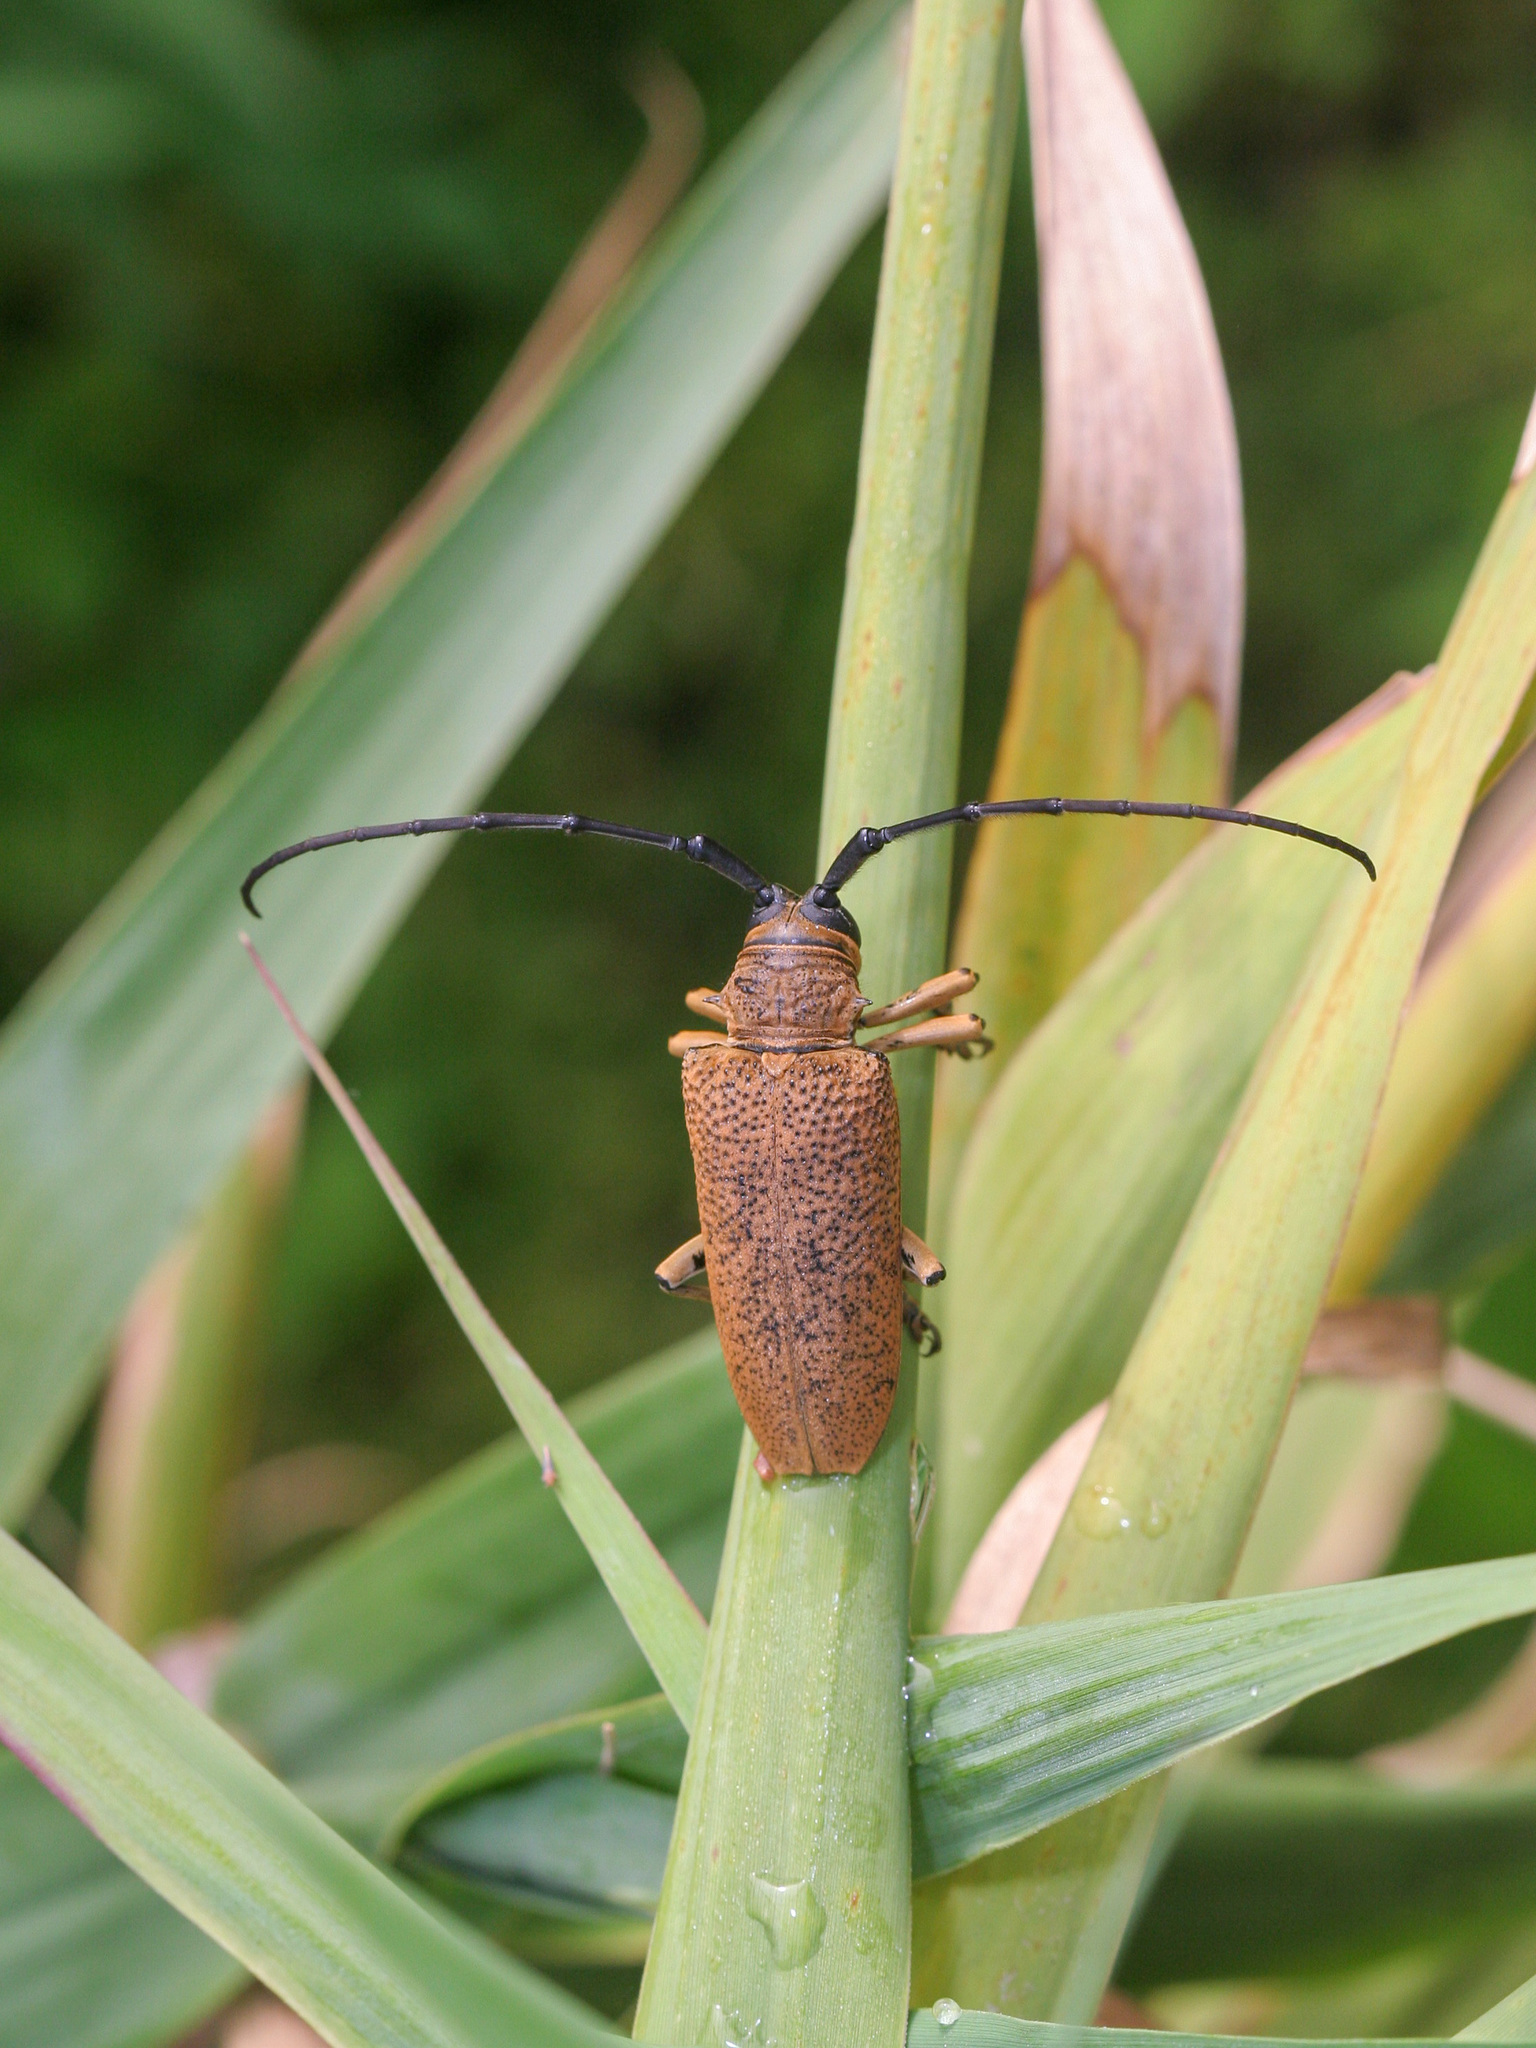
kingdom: Animalia
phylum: Arthropoda
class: Insecta
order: Coleoptera
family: Cerambycidae
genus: Cerosterna
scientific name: Cerosterna stolzi
